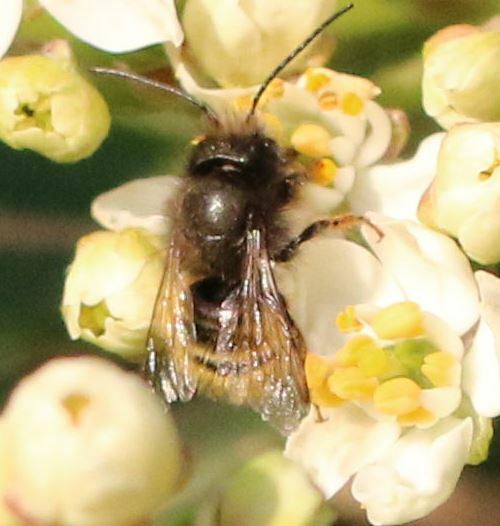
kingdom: Animalia
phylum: Arthropoda
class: Insecta
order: Hymenoptera
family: Megachilidae
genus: Osmia
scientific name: Osmia cornuta
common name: Mason bee
